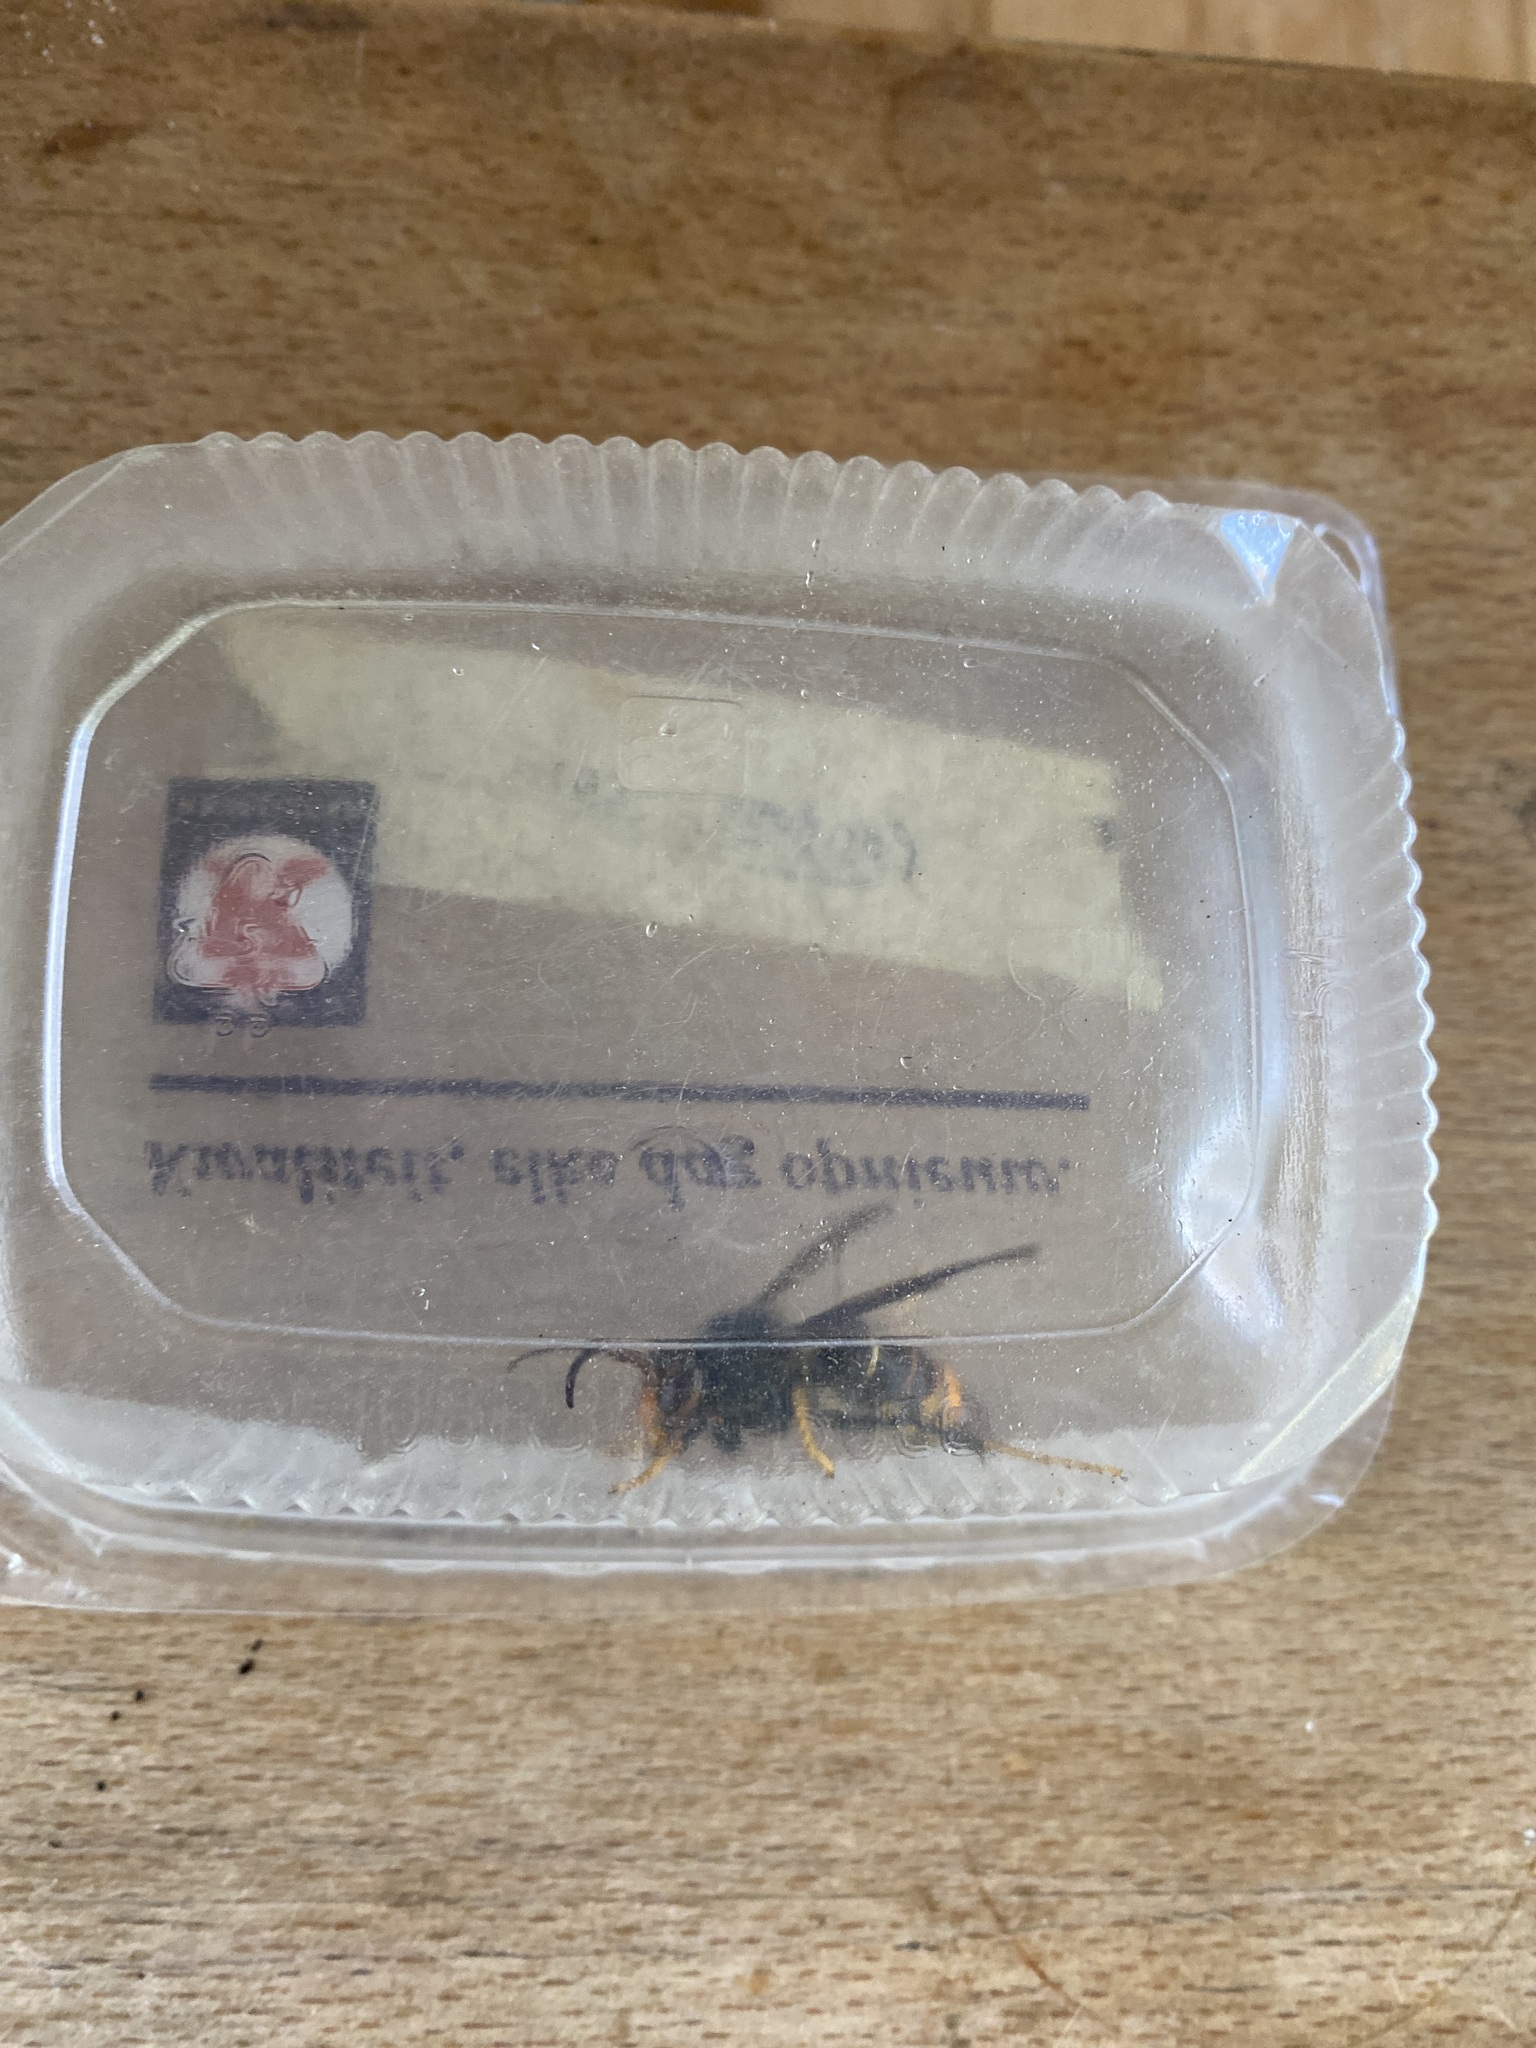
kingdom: Animalia
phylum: Arthropoda
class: Insecta
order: Hymenoptera
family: Vespidae
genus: Vespa
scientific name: Vespa velutina
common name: Asian hornet
